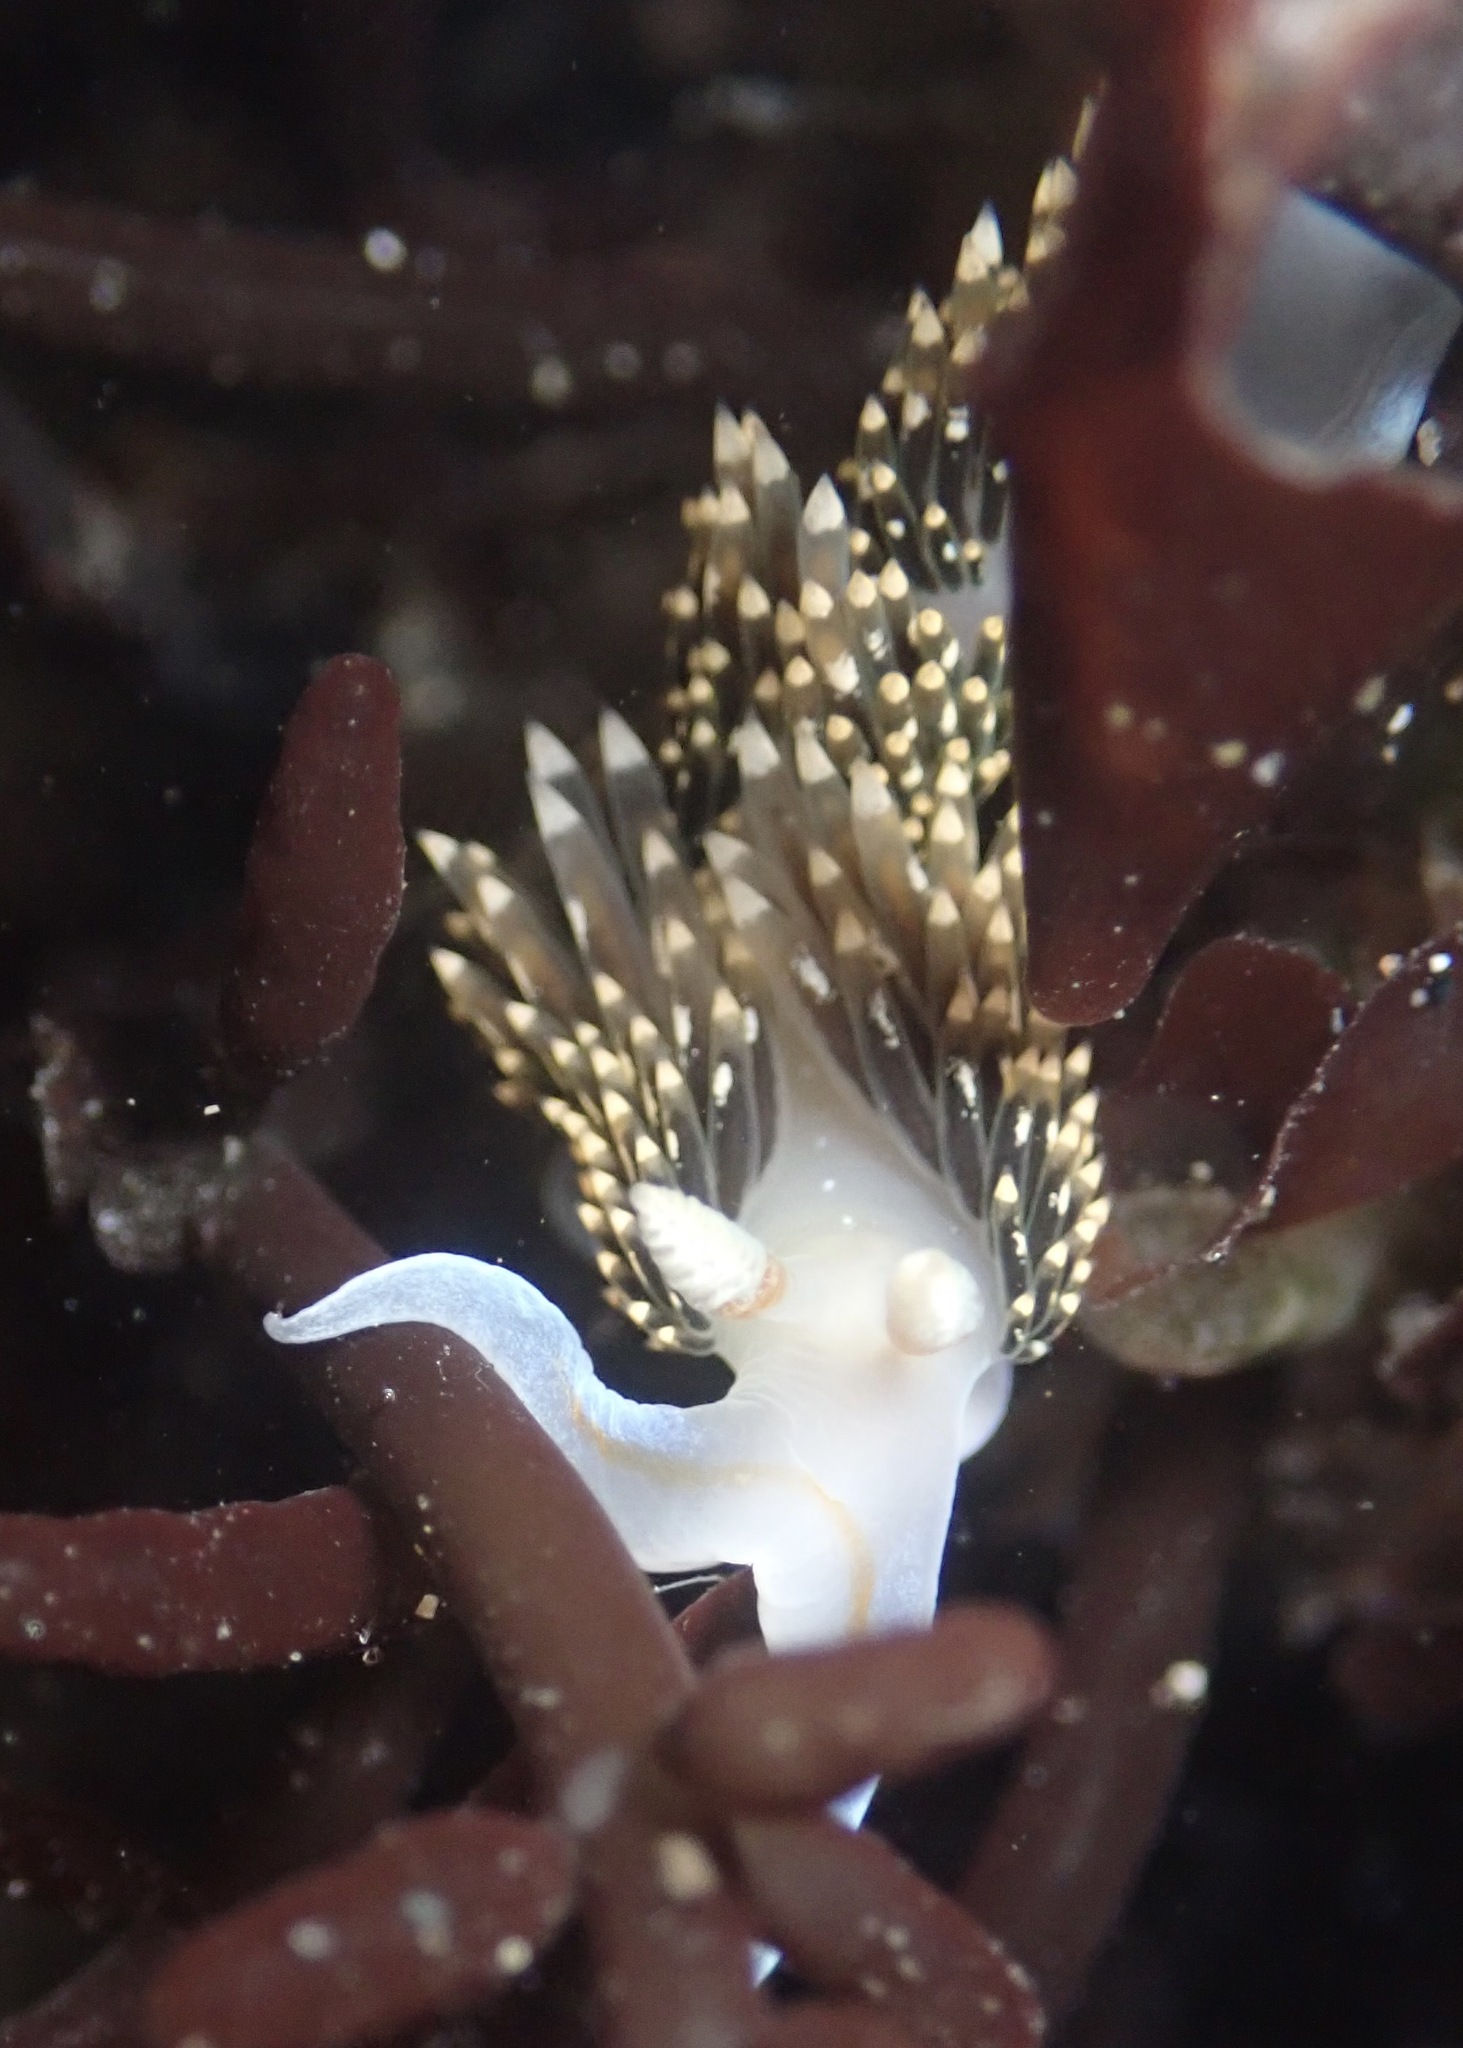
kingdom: Animalia
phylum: Mollusca
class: Gastropoda
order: Nudibranchia
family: Facelinidae
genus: Phidiana
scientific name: Phidiana hiltoni
